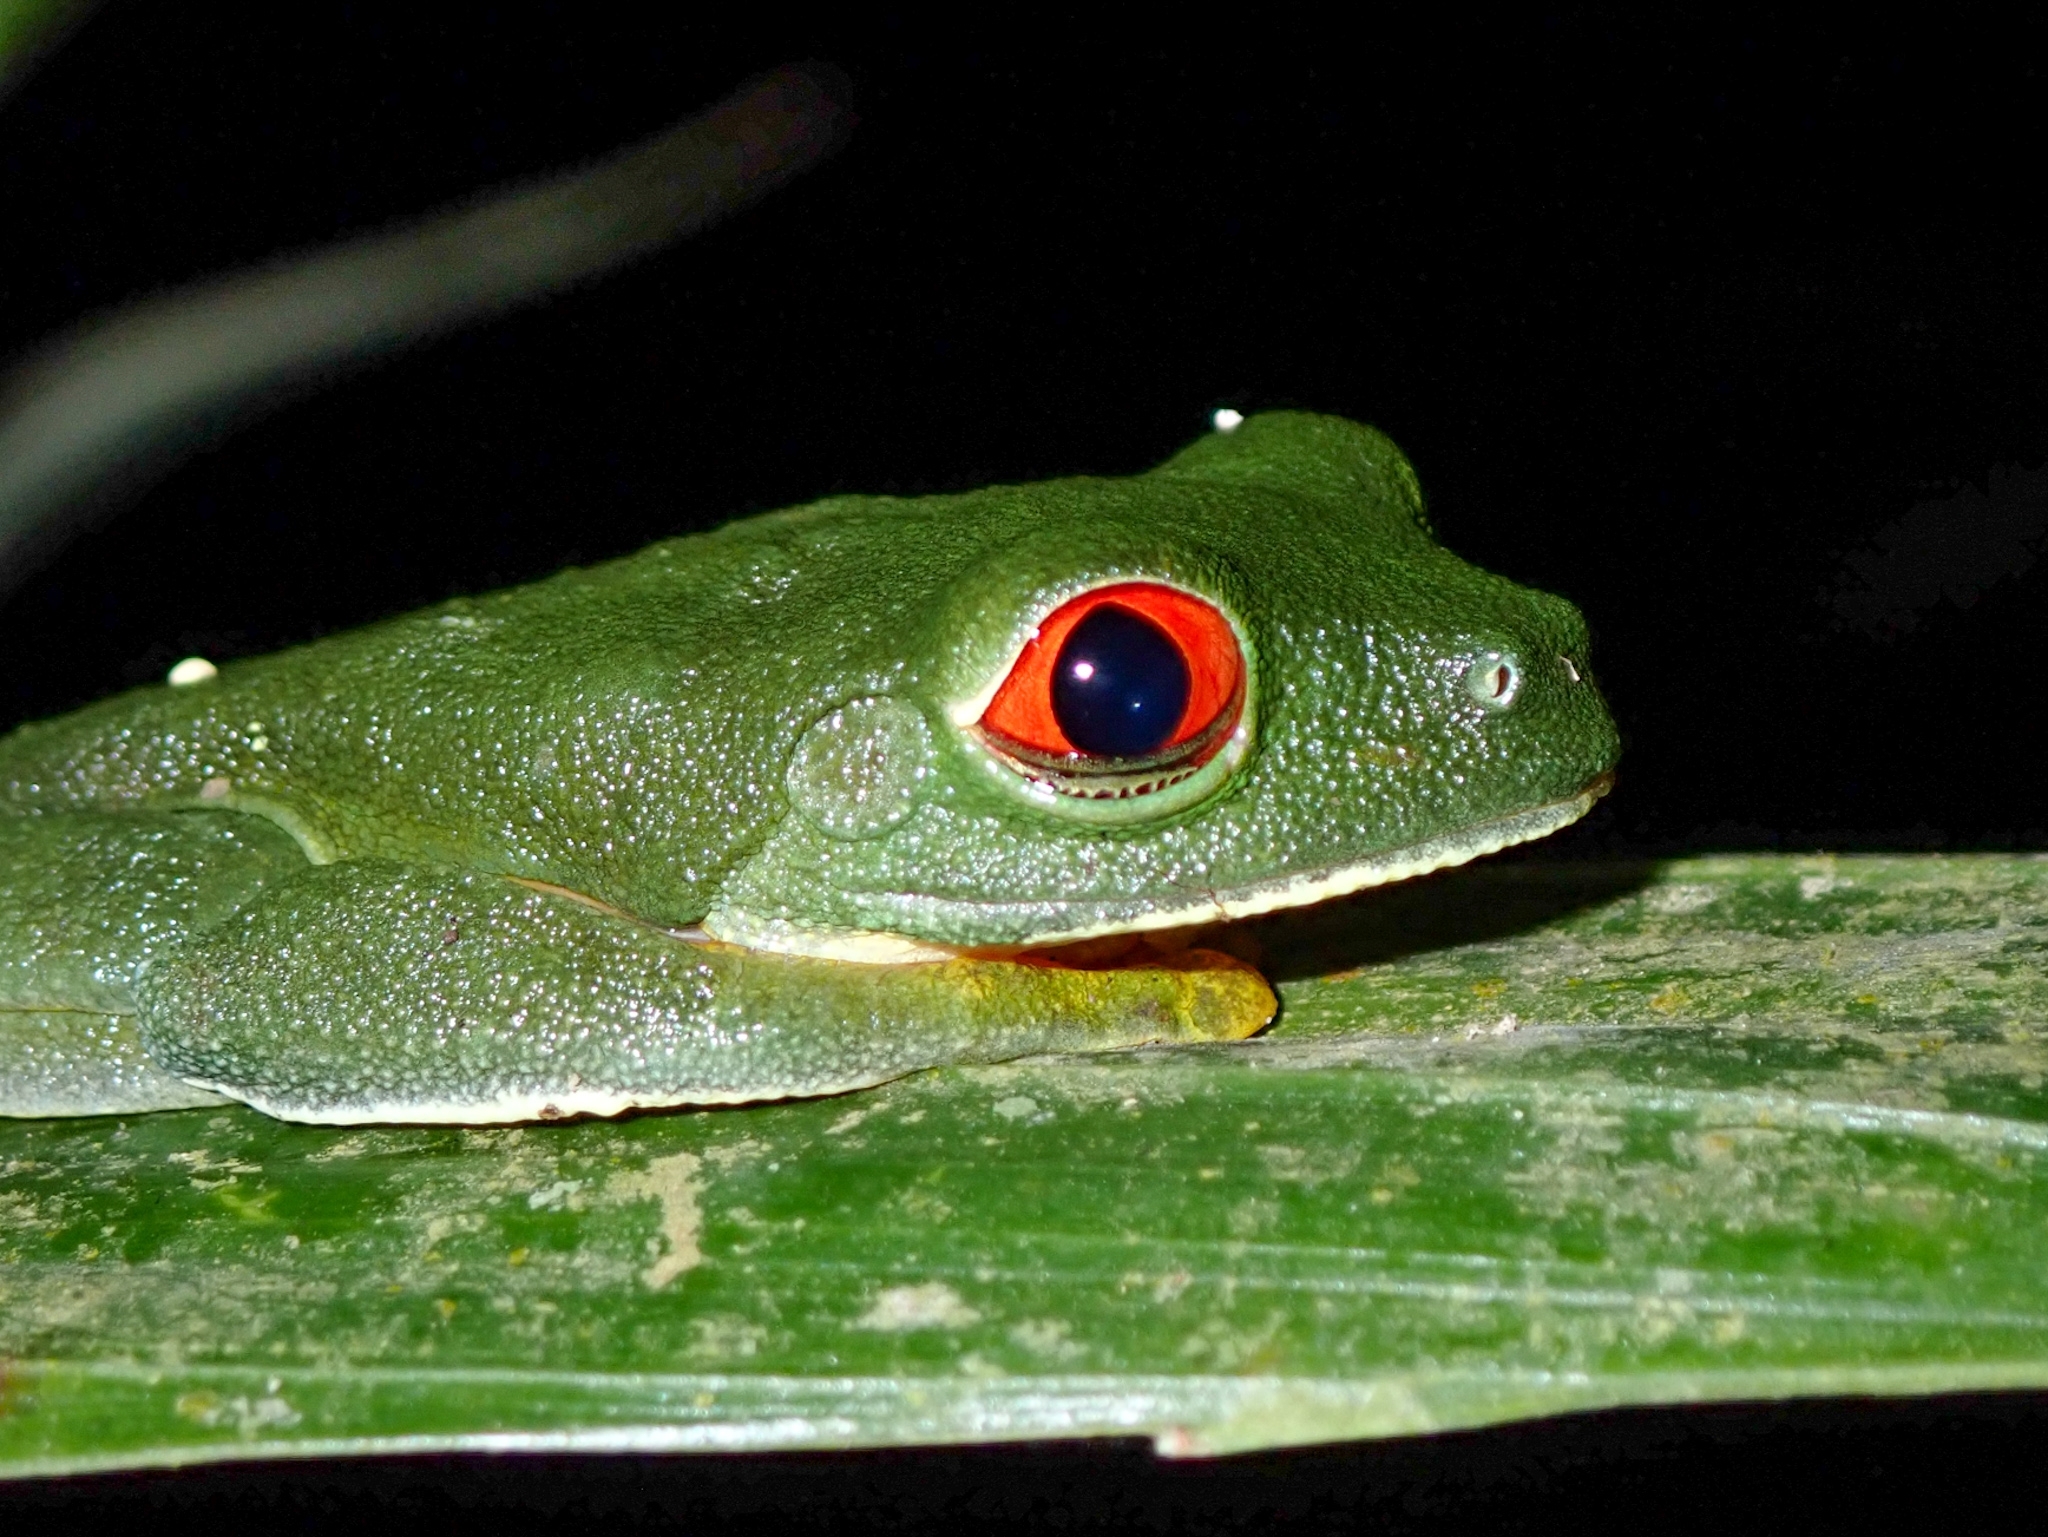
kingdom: Animalia
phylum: Chordata
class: Amphibia
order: Anura
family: Phyllomedusidae
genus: Agalychnis
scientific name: Agalychnis
